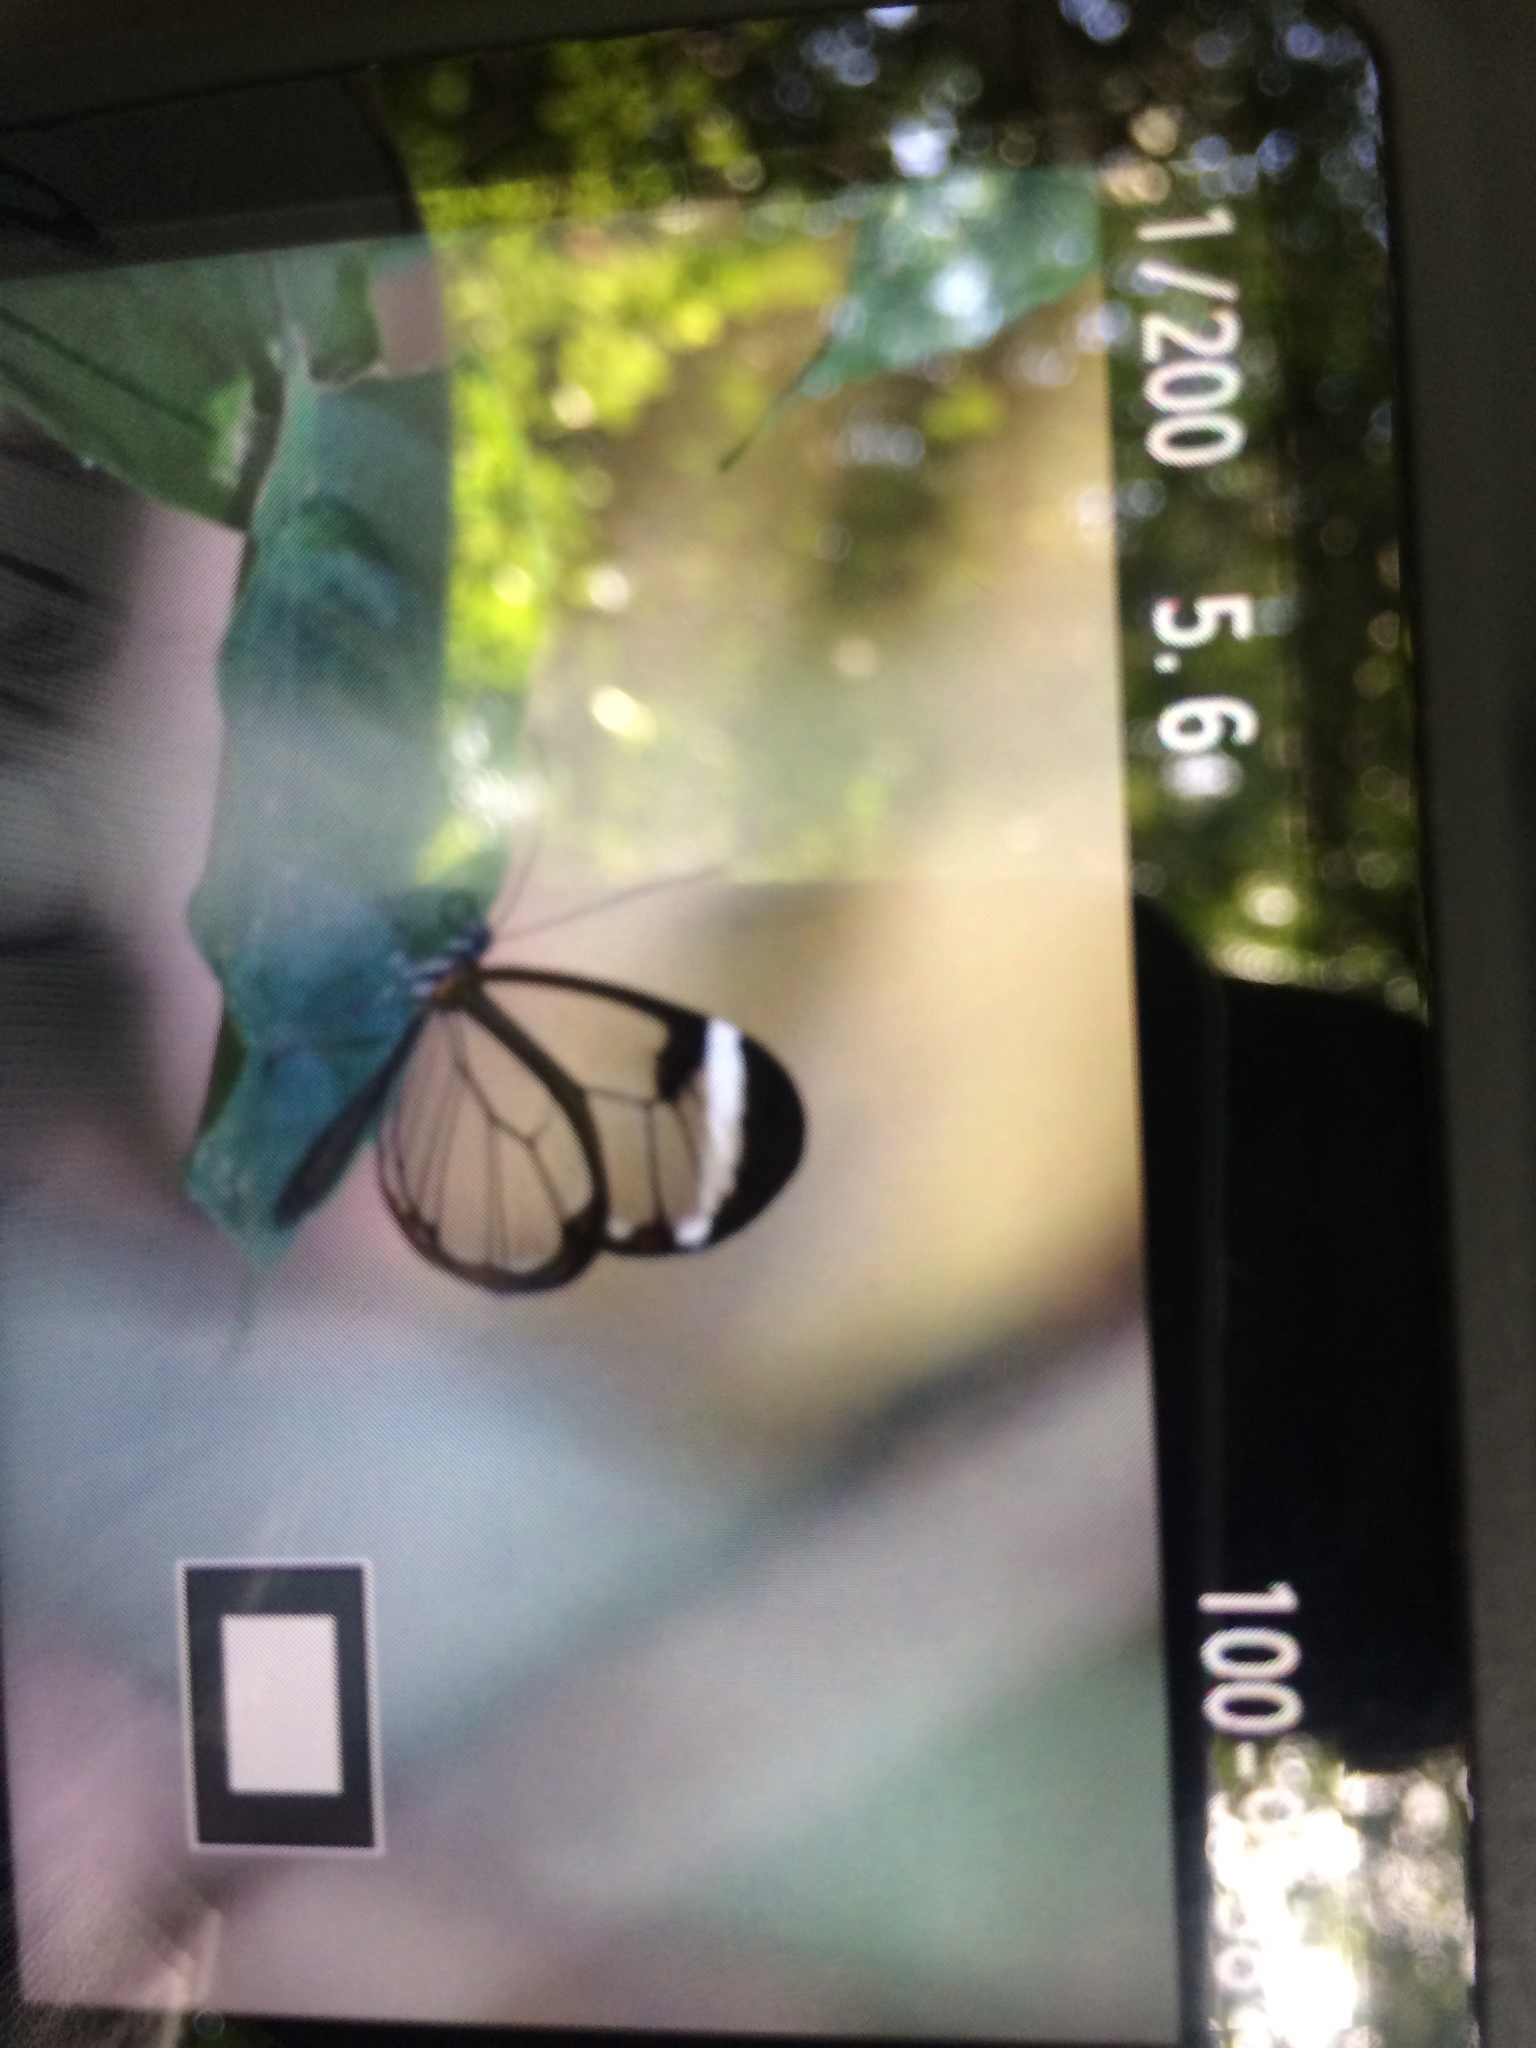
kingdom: Animalia
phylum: Arthropoda
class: Insecta
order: Lepidoptera
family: Nymphalidae
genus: Greta
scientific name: Greta morgane
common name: Thick-tipped greta
